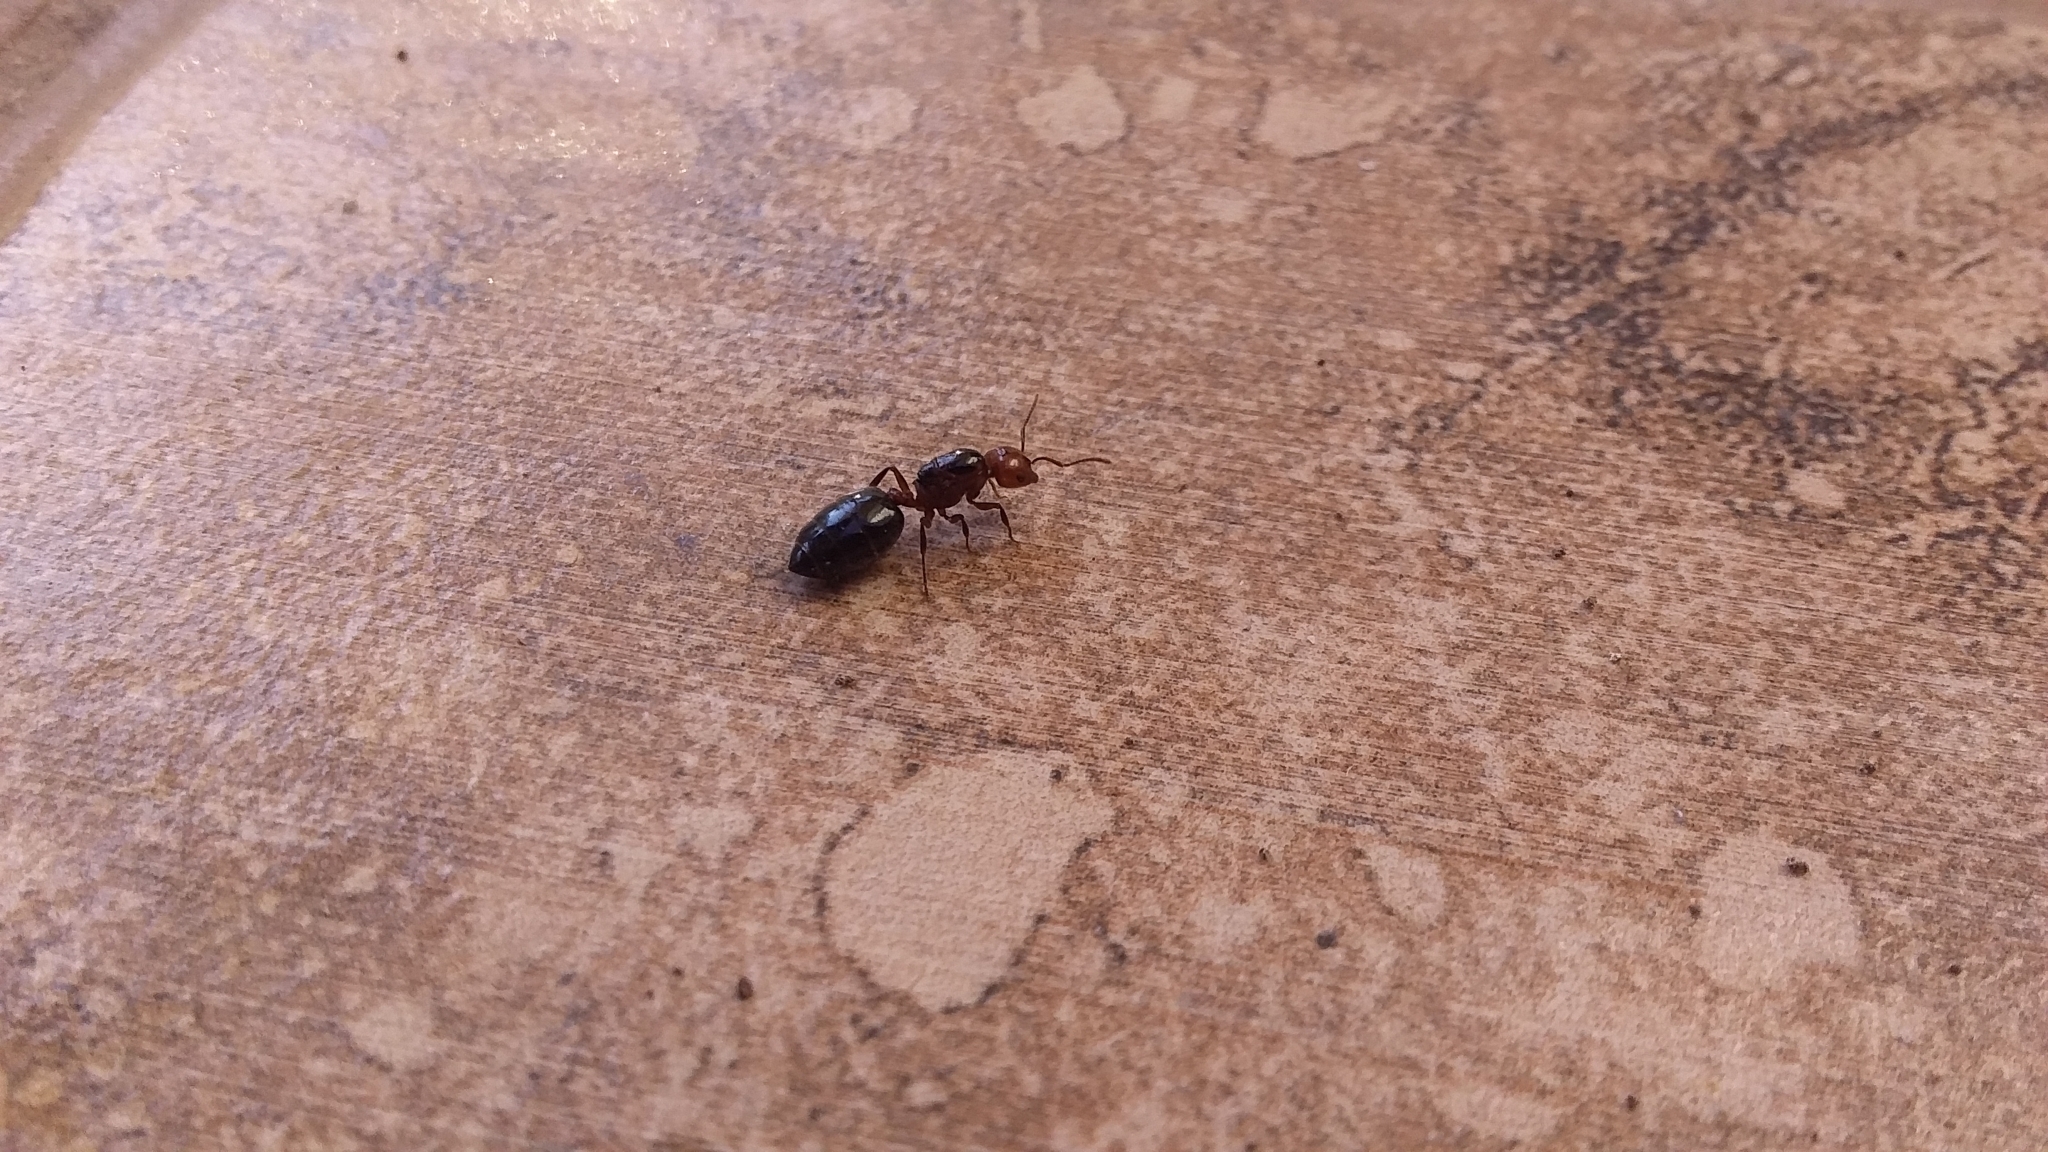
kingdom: Animalia
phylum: Arthropoda
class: Insecta
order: Hymenoptera
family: Formicidae
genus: Crematogaster
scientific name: Crematogaster laeviuscula
